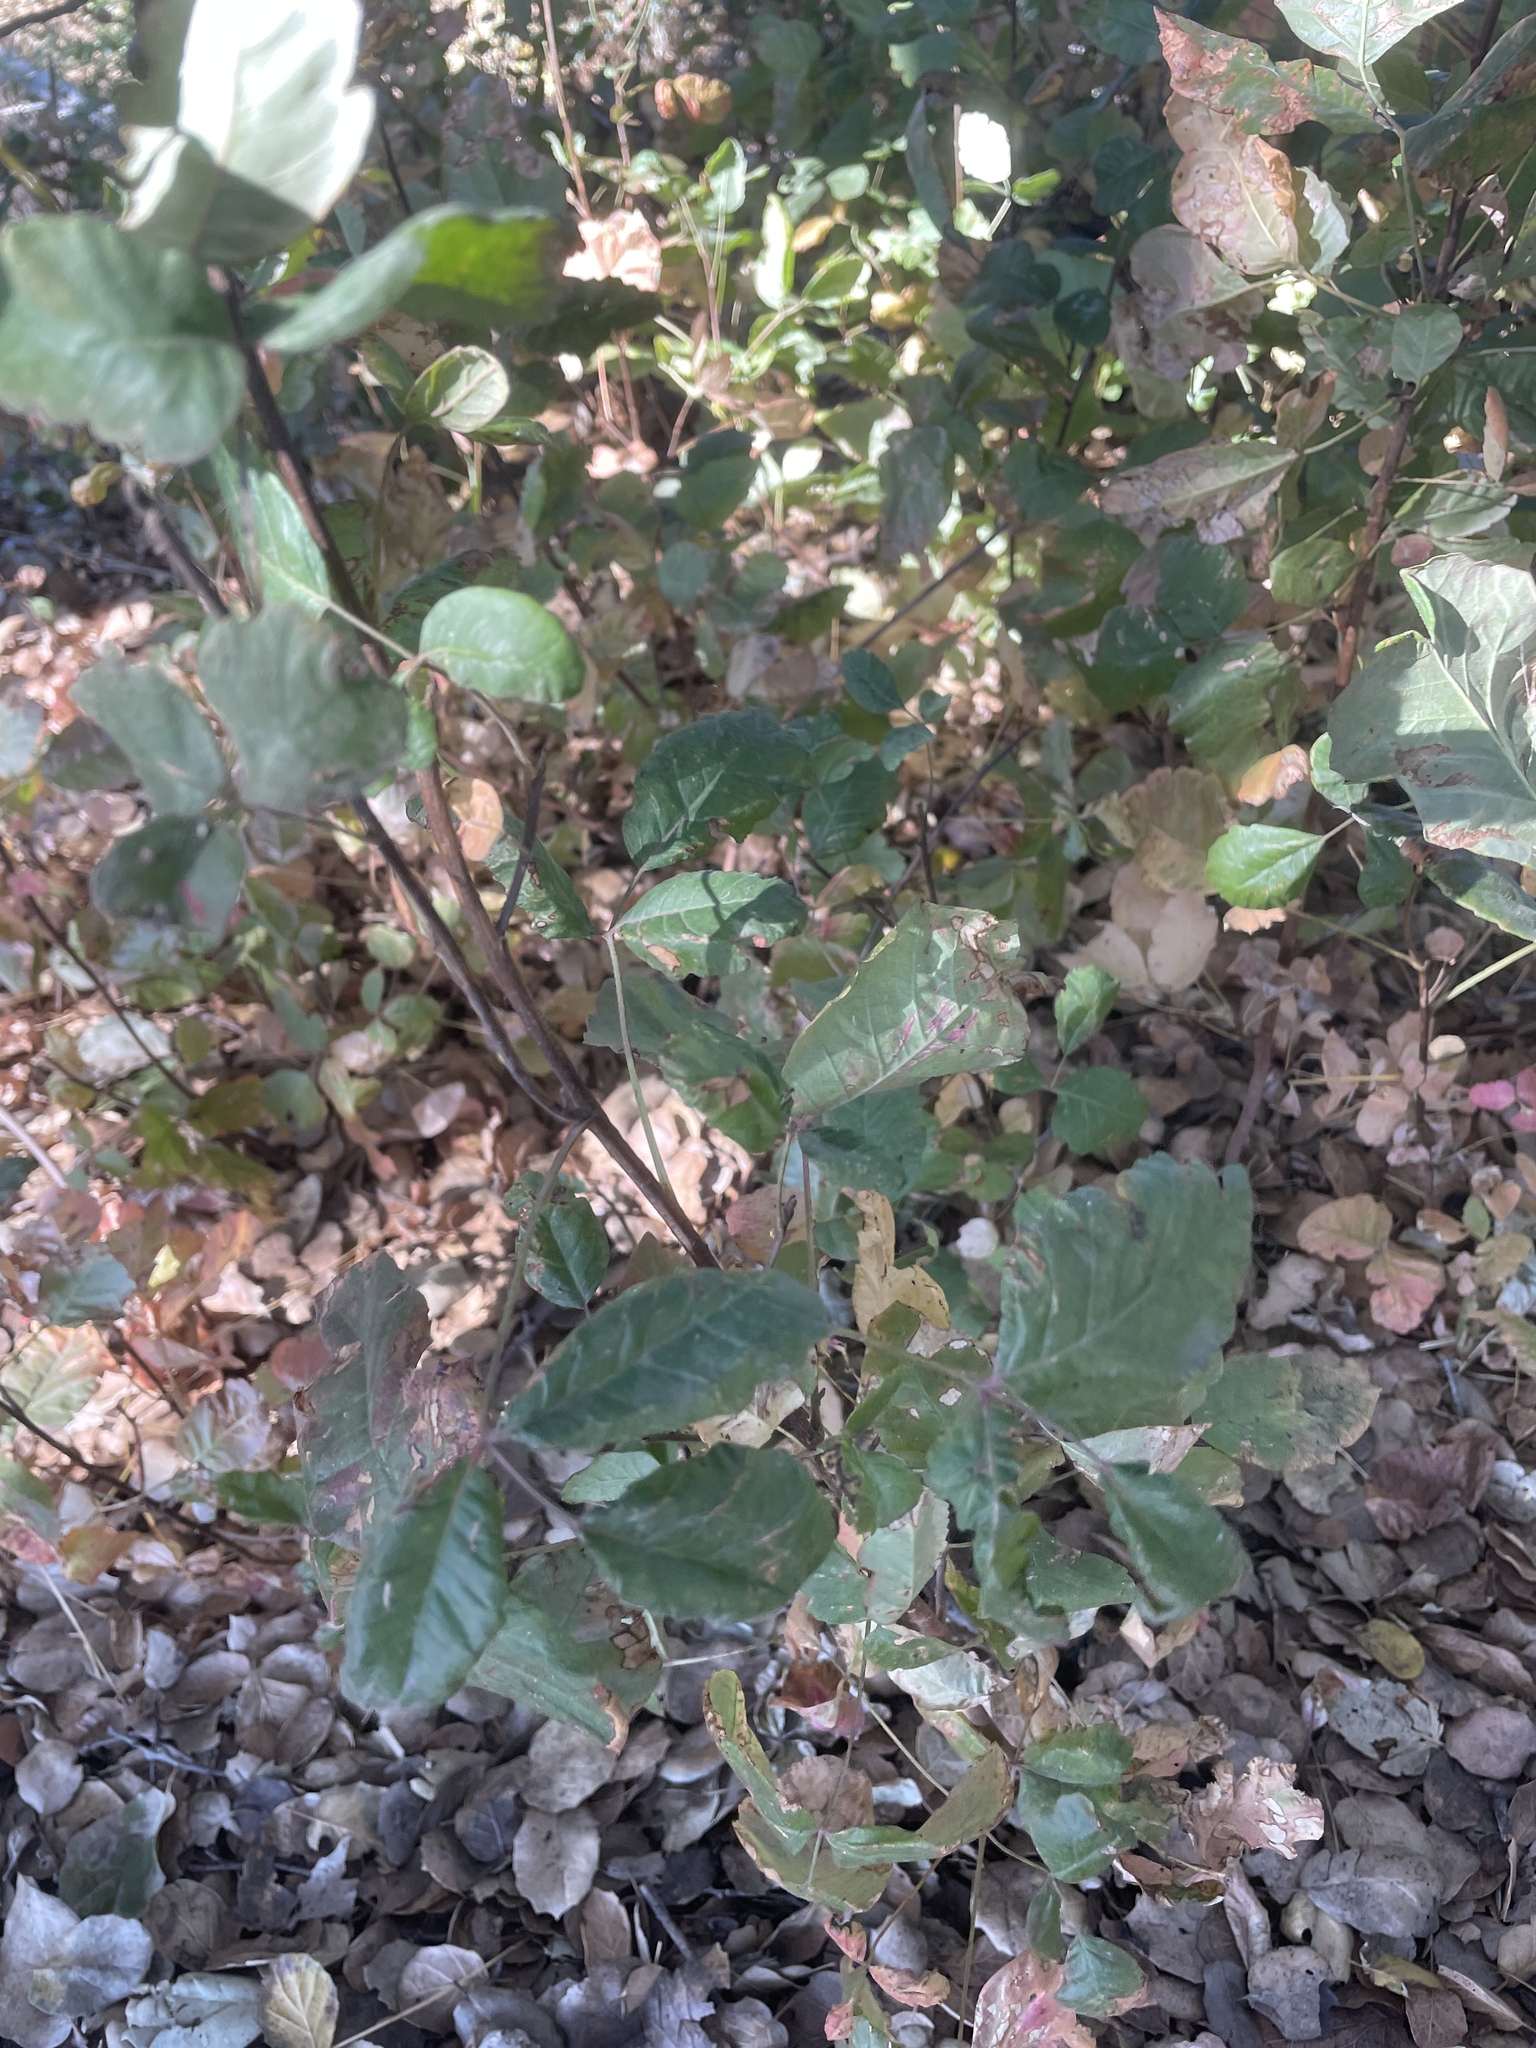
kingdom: Plantae
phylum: Tracheophyta
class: Magnoliopsida
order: Sapindales
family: Anacardiaceae
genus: Toxicodendron
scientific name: Toxicodendron diversilobum
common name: Pacific poison-oak
